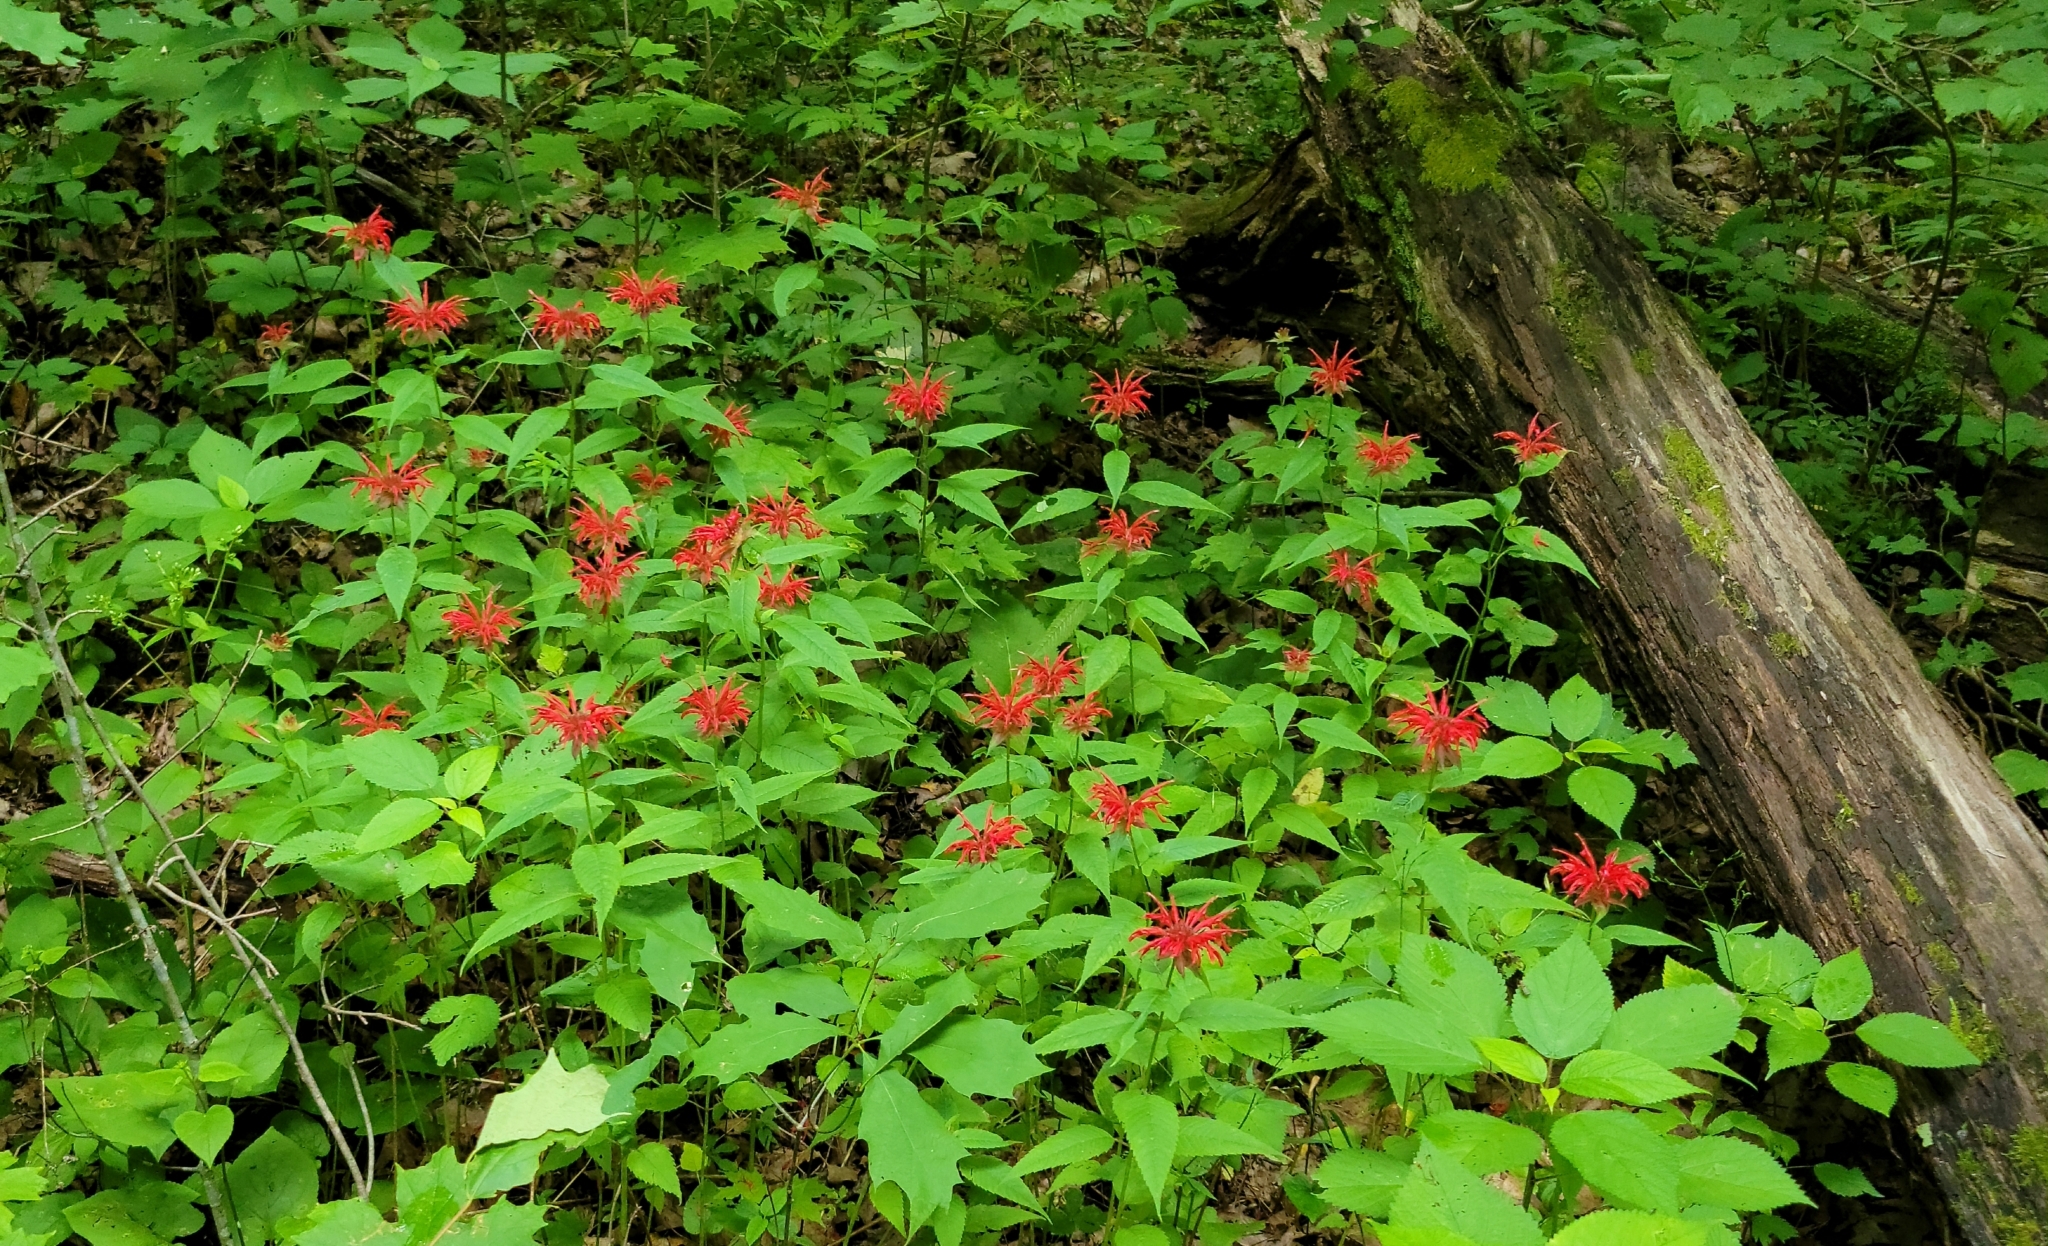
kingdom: Plantae
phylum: Tracheophyta
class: Magnoliopsida
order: Lamiales
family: Lamiaceae
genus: Monarda
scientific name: Monarda didyma
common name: Beebalm
